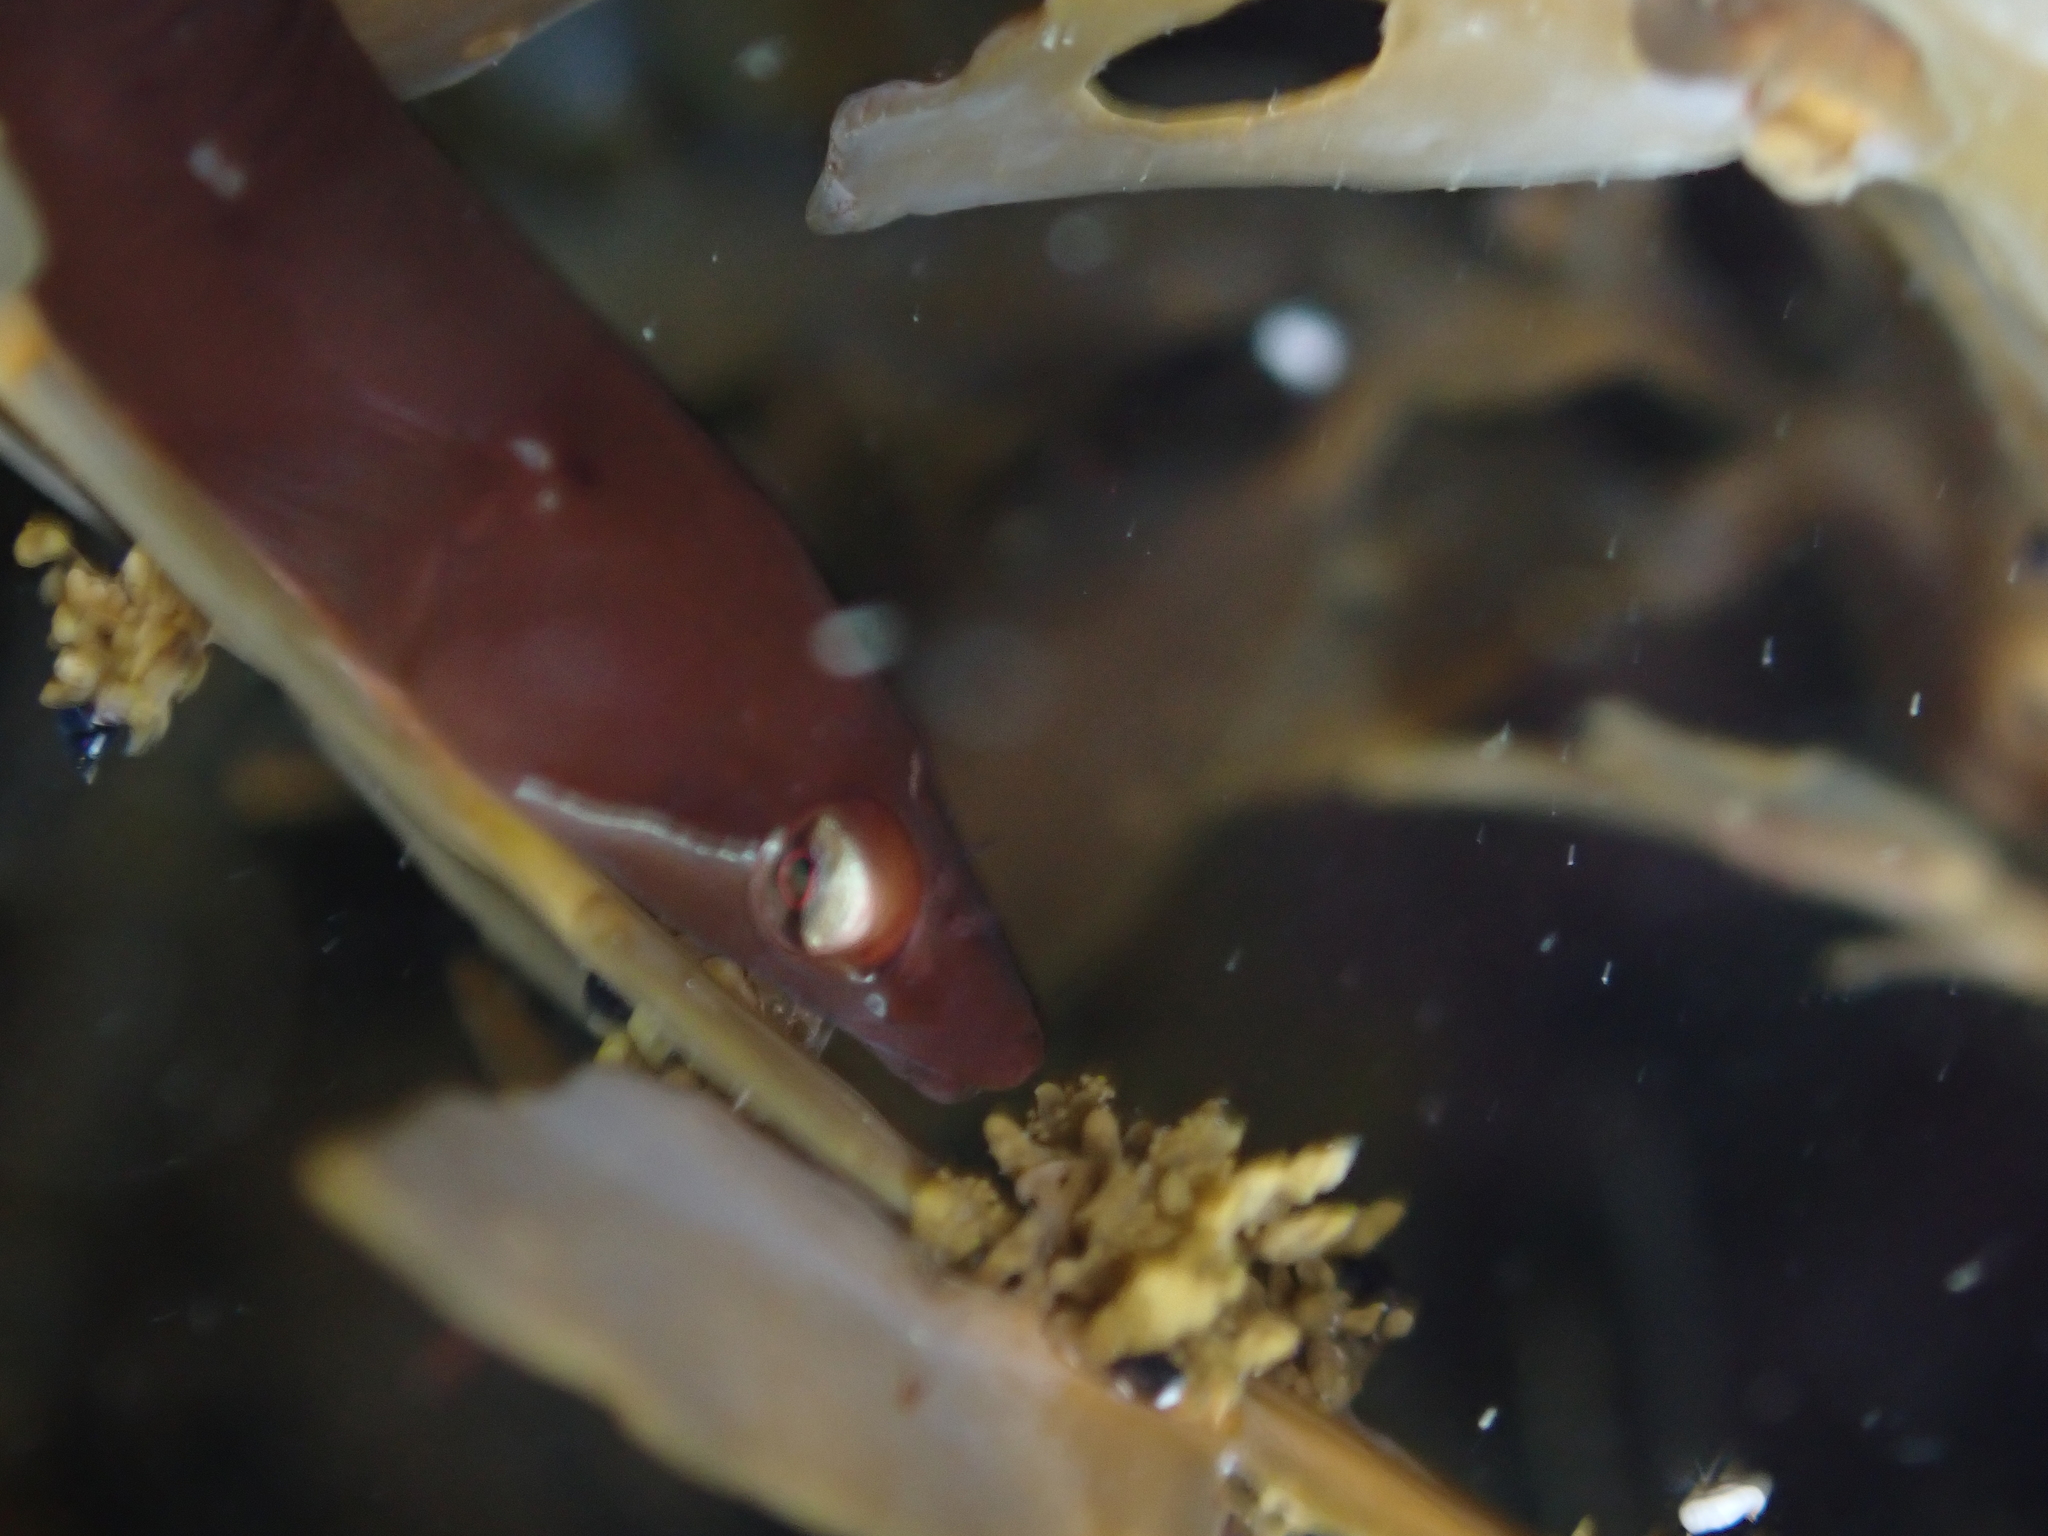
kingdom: Animalia
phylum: Chordata
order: Gobiesociformes
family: Gobiesocidae
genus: Gastroscyphus
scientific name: Gastroscyphus hectoris
